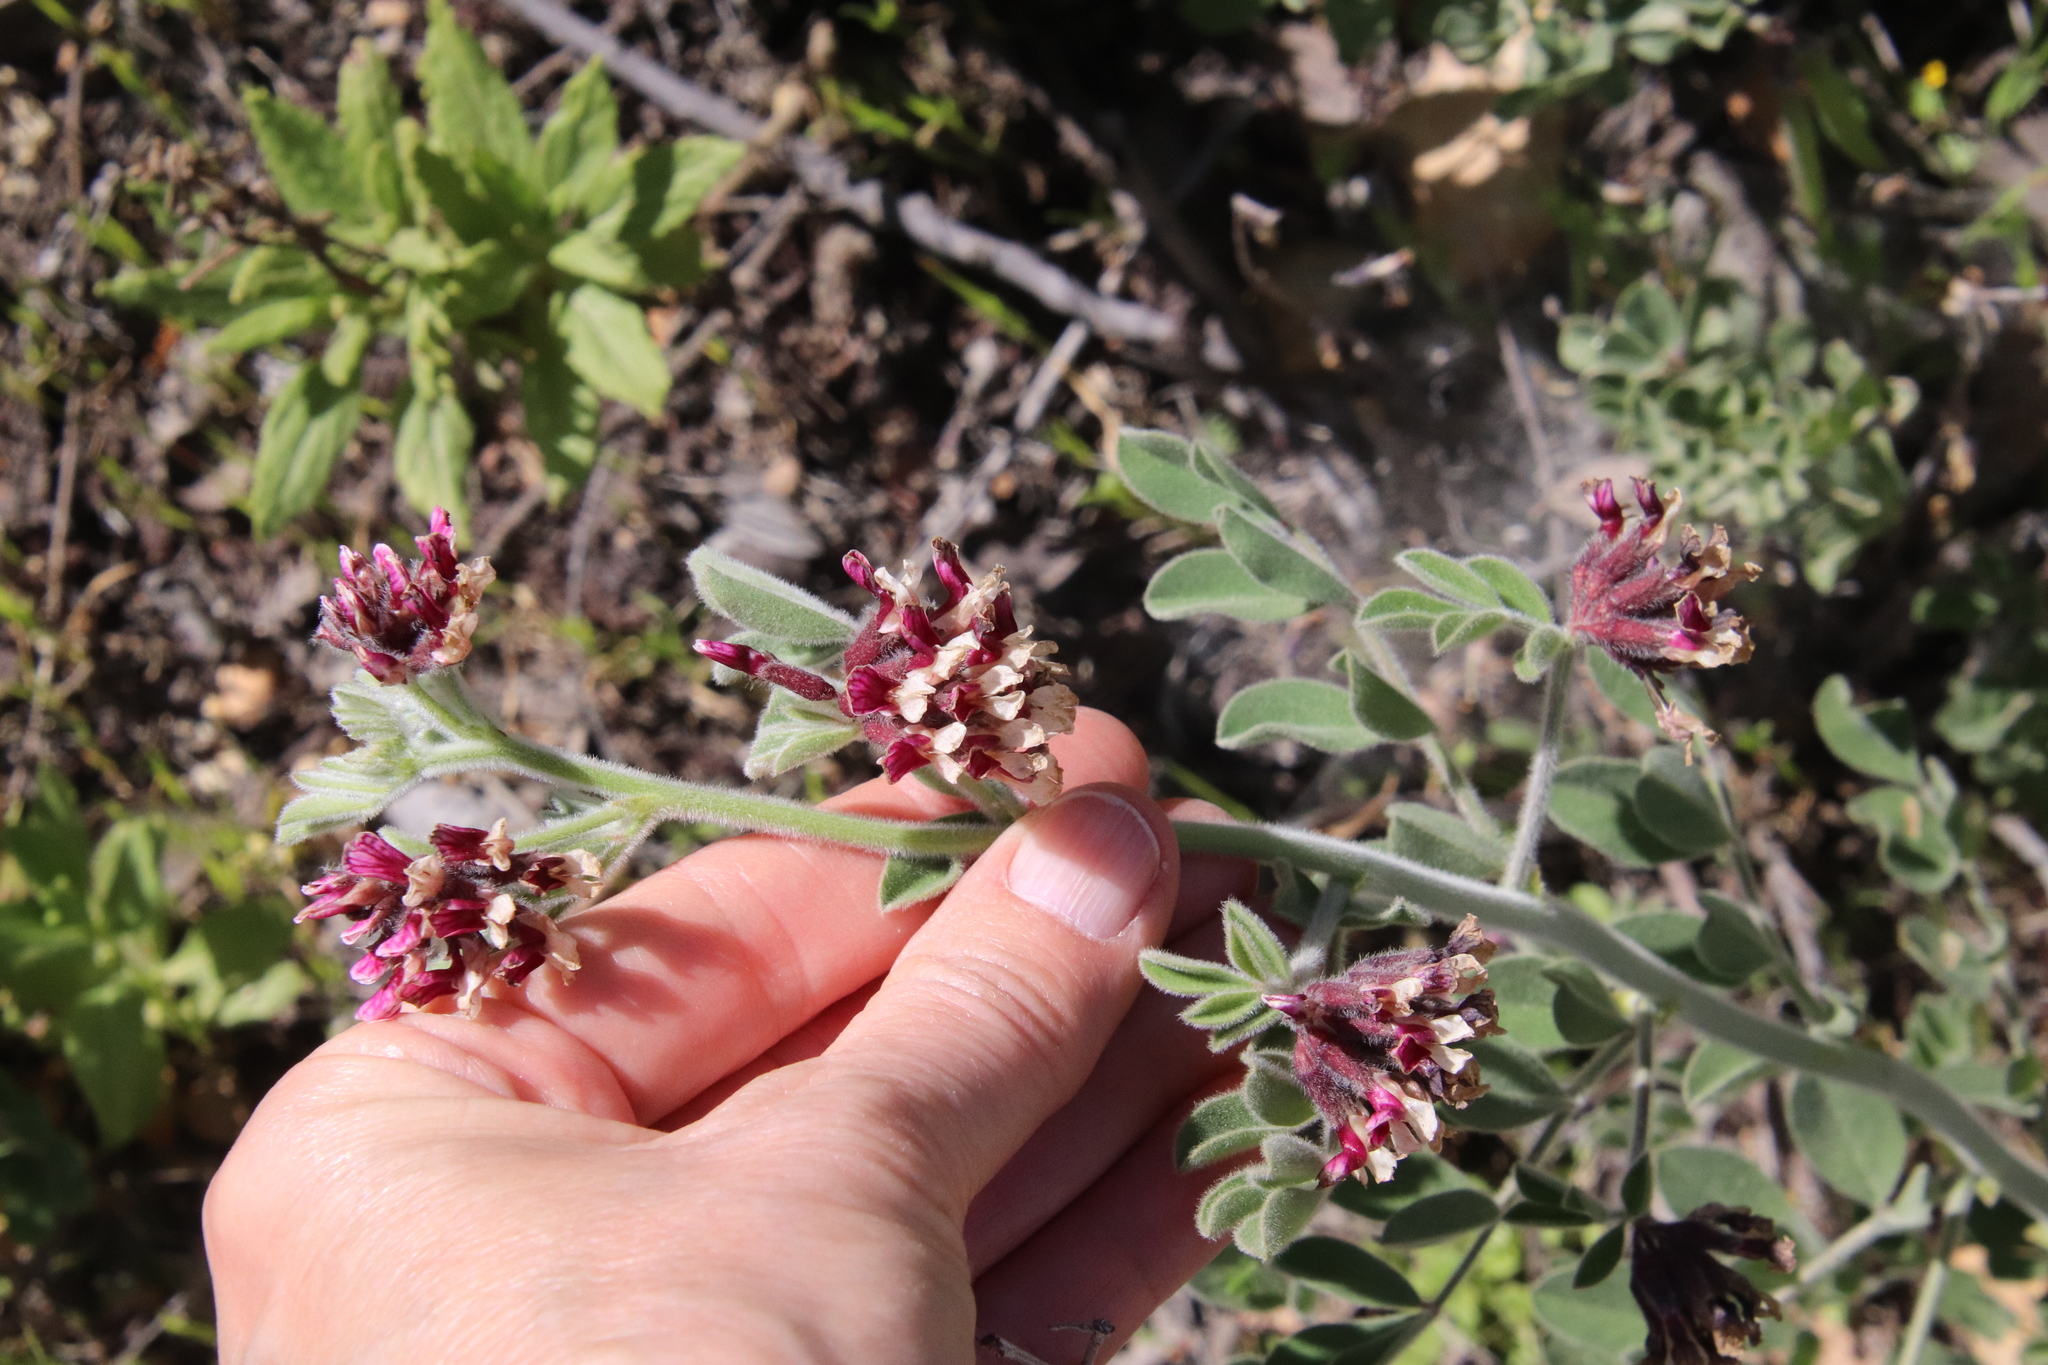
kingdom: Plantae
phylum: Tracheophyta
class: Magnoliopsida
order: Fabales
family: Fabaceae
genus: Hosackia
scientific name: Hosackia crassifolia
